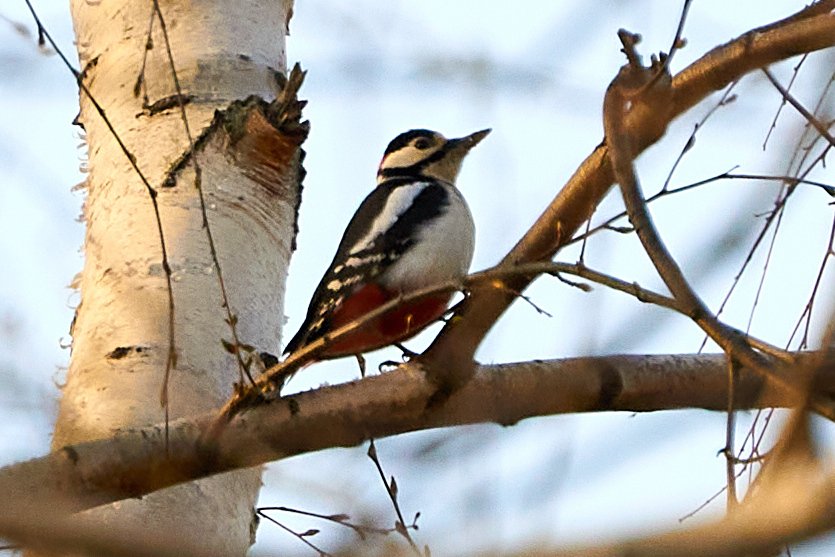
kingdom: Animalia
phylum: Chordata
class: Aves
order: Piciformes
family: Picidae
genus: Dendrocopos
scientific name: Dendrocopos major
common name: Great spotted woodpecker
